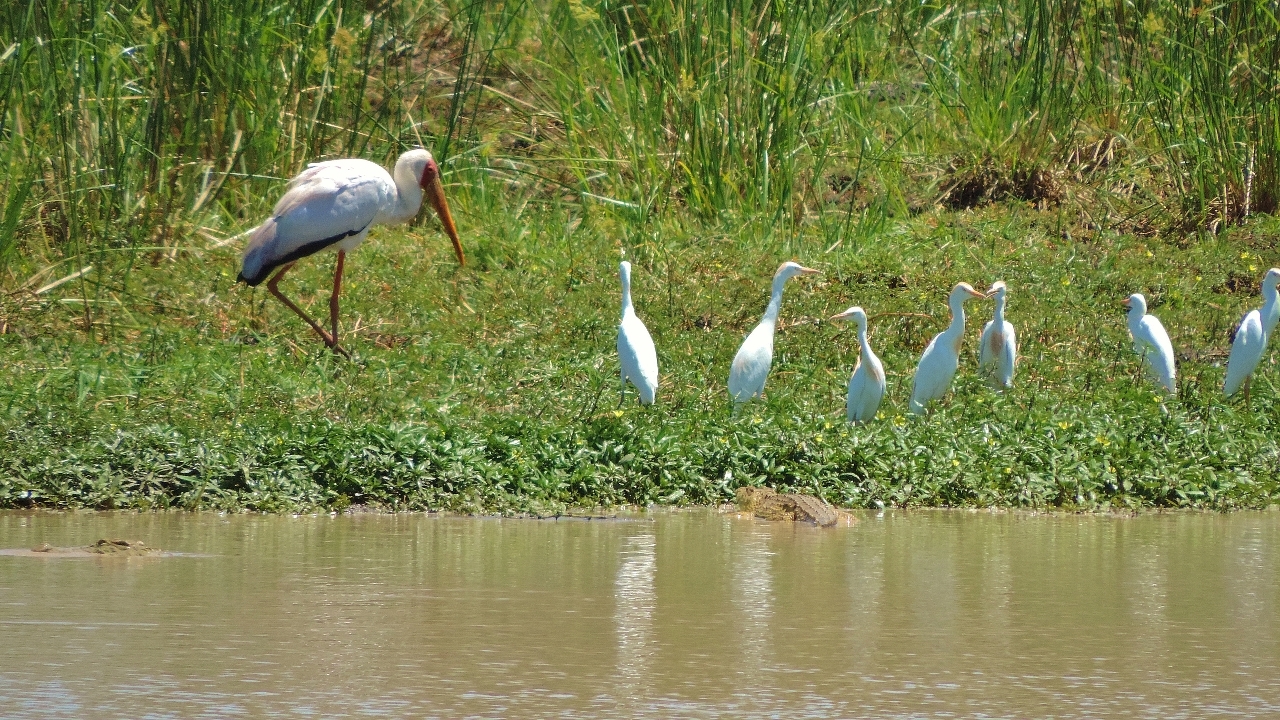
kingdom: Animalia
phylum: Chordata
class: Aves
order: Pelecaniformes
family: Ardeidae
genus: Bubulcus
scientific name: Bubulcus ibis
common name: Cattle egret
